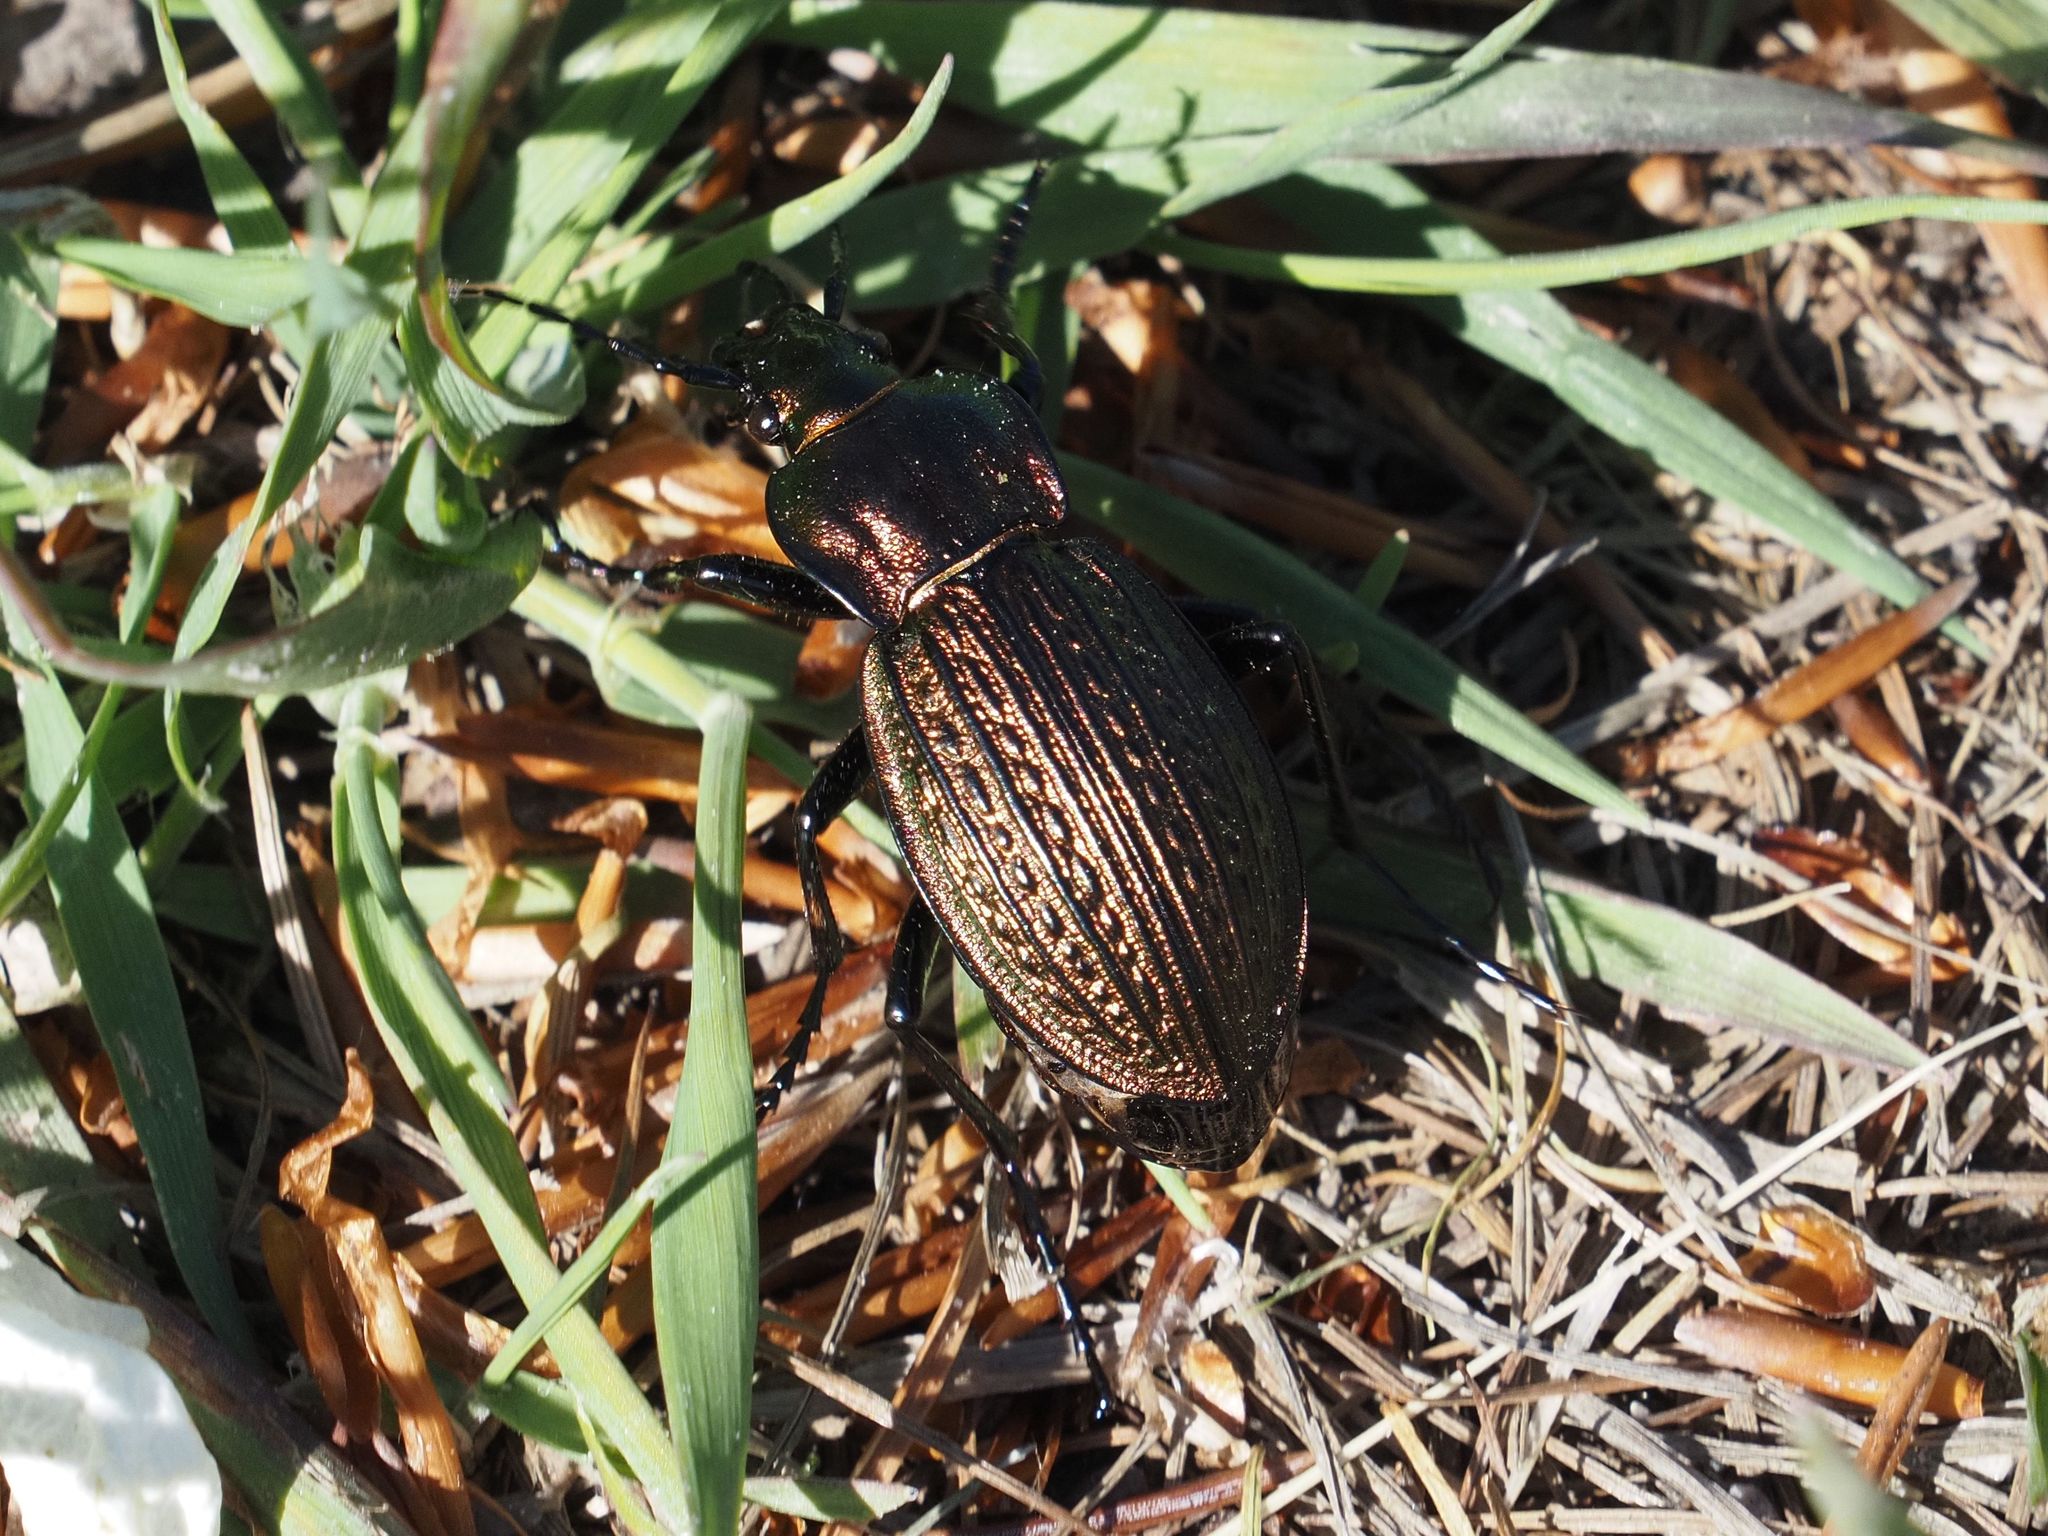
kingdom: Animalia
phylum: Arthropoda
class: Insecta
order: Coleoptera
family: Carabidae
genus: Carabus
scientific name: Carabus ulrichii
